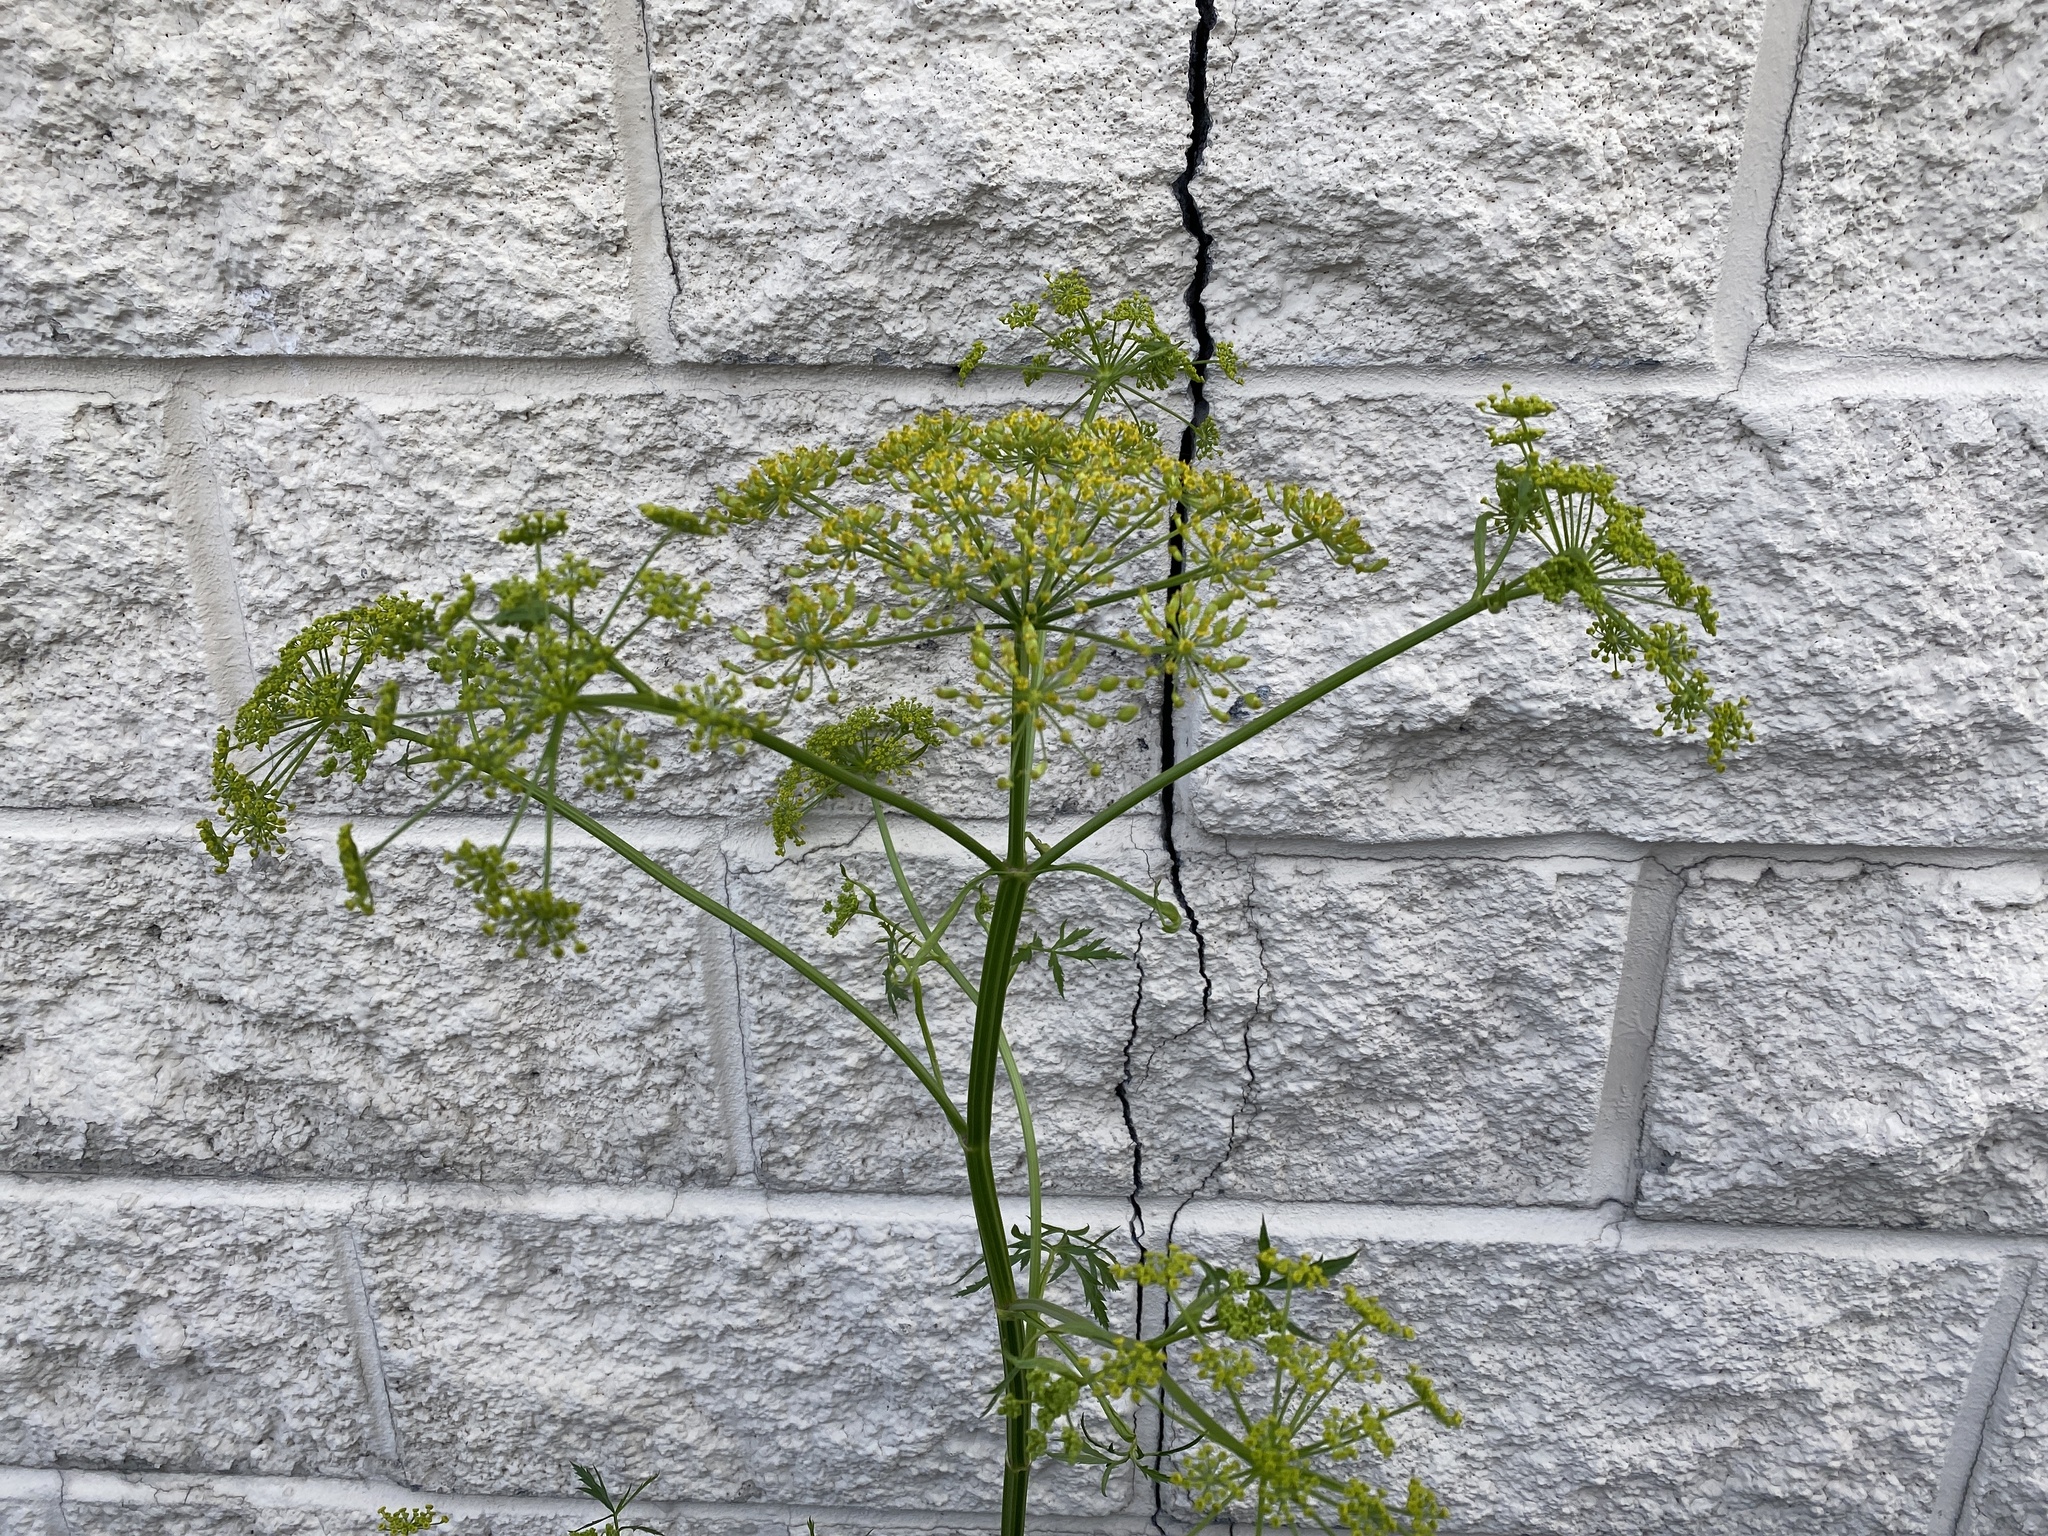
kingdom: Plantae
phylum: Tracheophyta
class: Magnoliopsida
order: Apiales
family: Apiaceae
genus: Pastinaca
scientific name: Pastinaca sativa
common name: Wild parsnip
